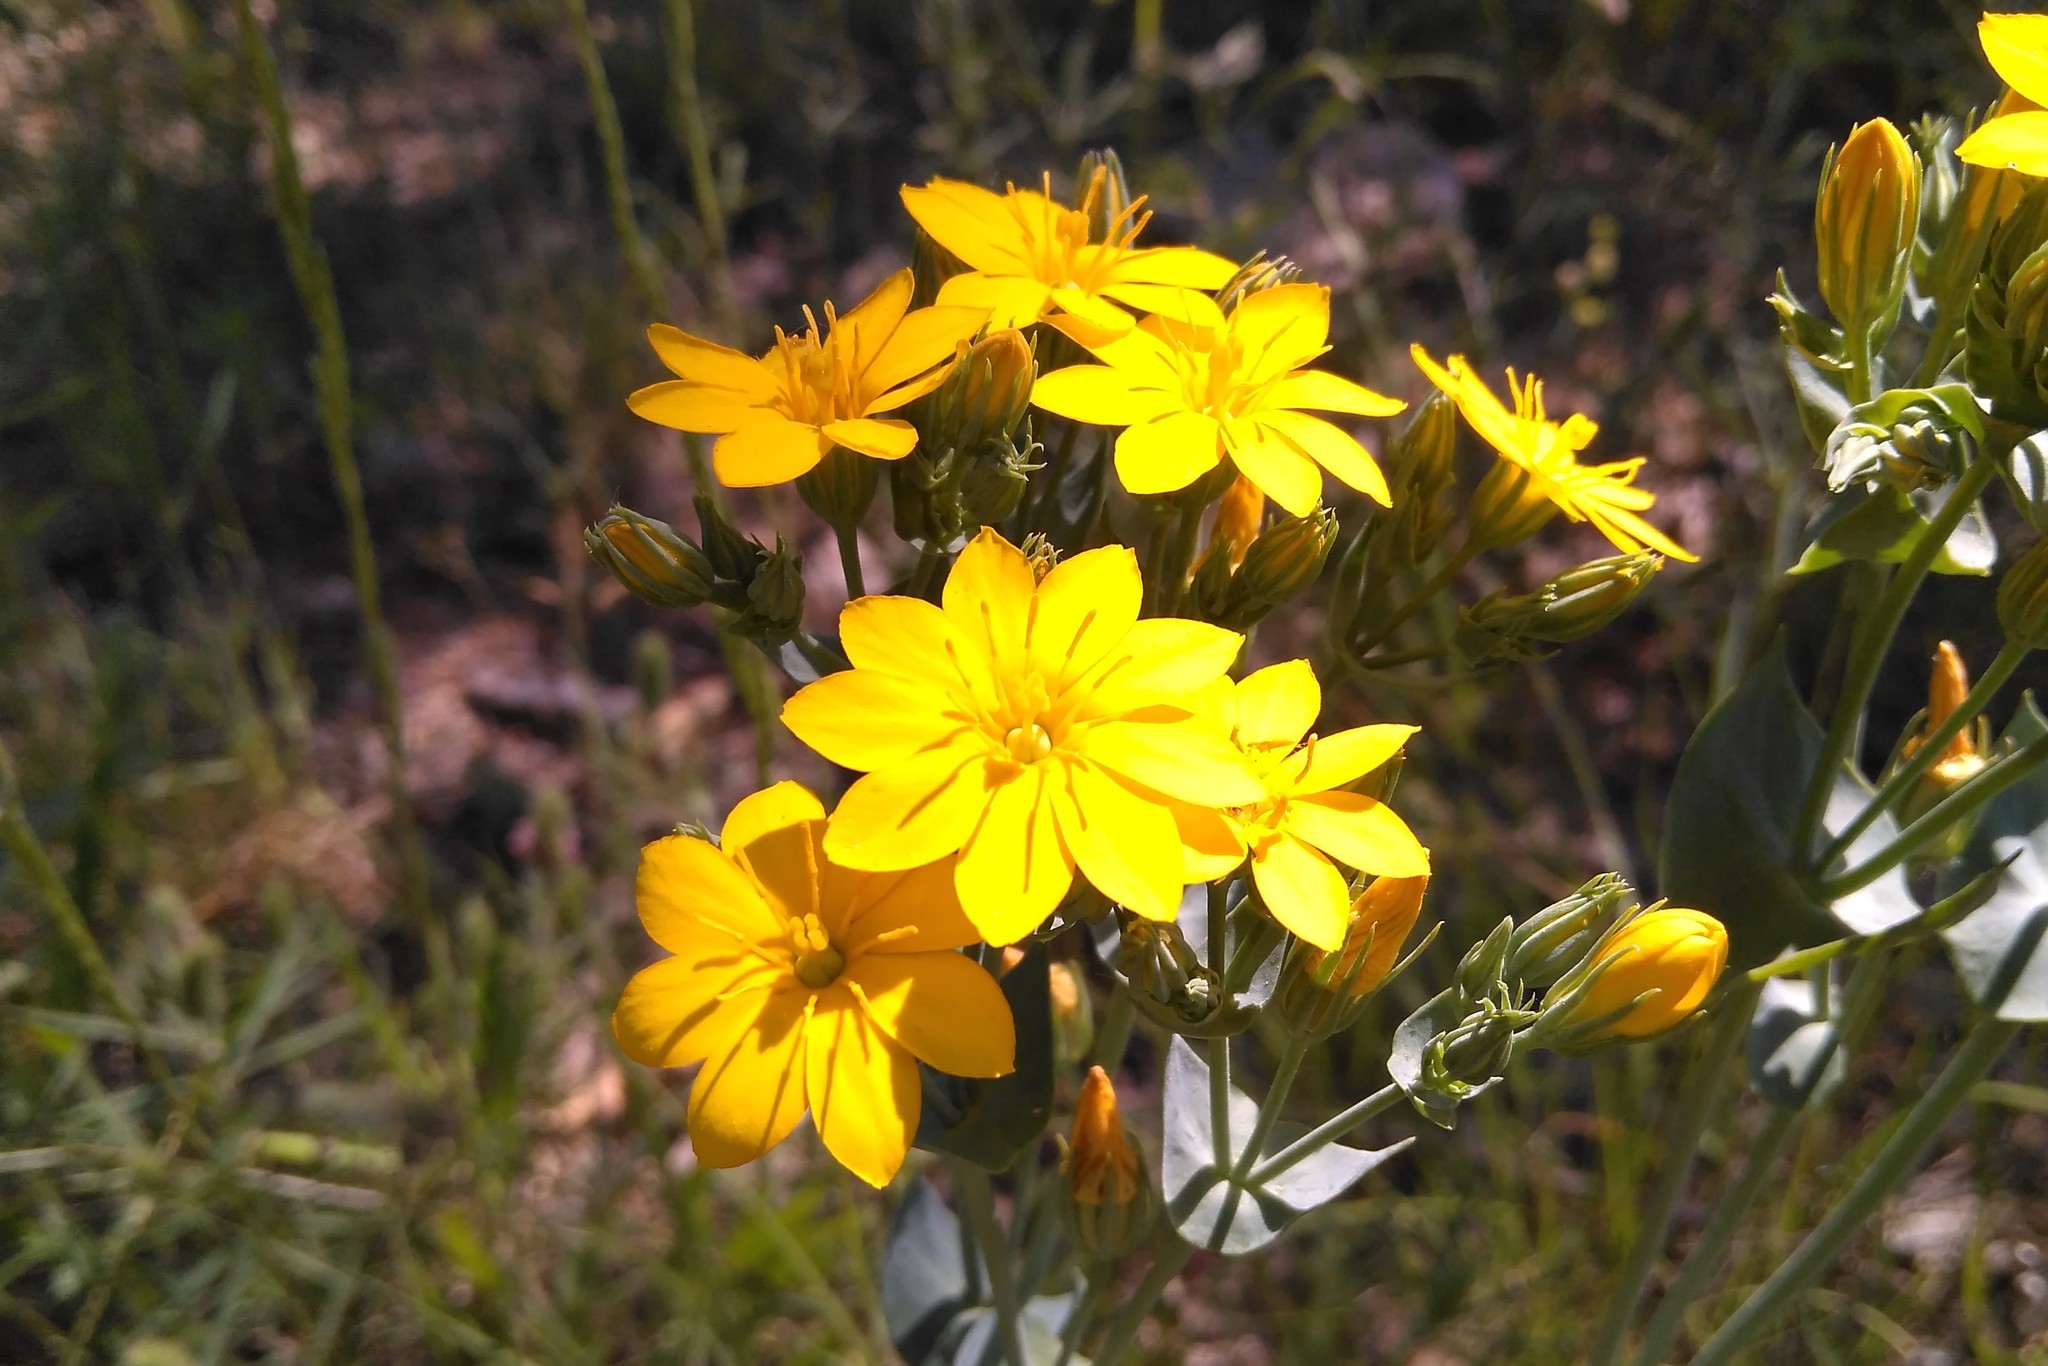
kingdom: Plantae
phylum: Tracheophyta
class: Magnoliopsida
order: Gentianales
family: Gentianaceae
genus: Blackstonia
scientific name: Blackstonia perfoliata
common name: Yellow-wort
